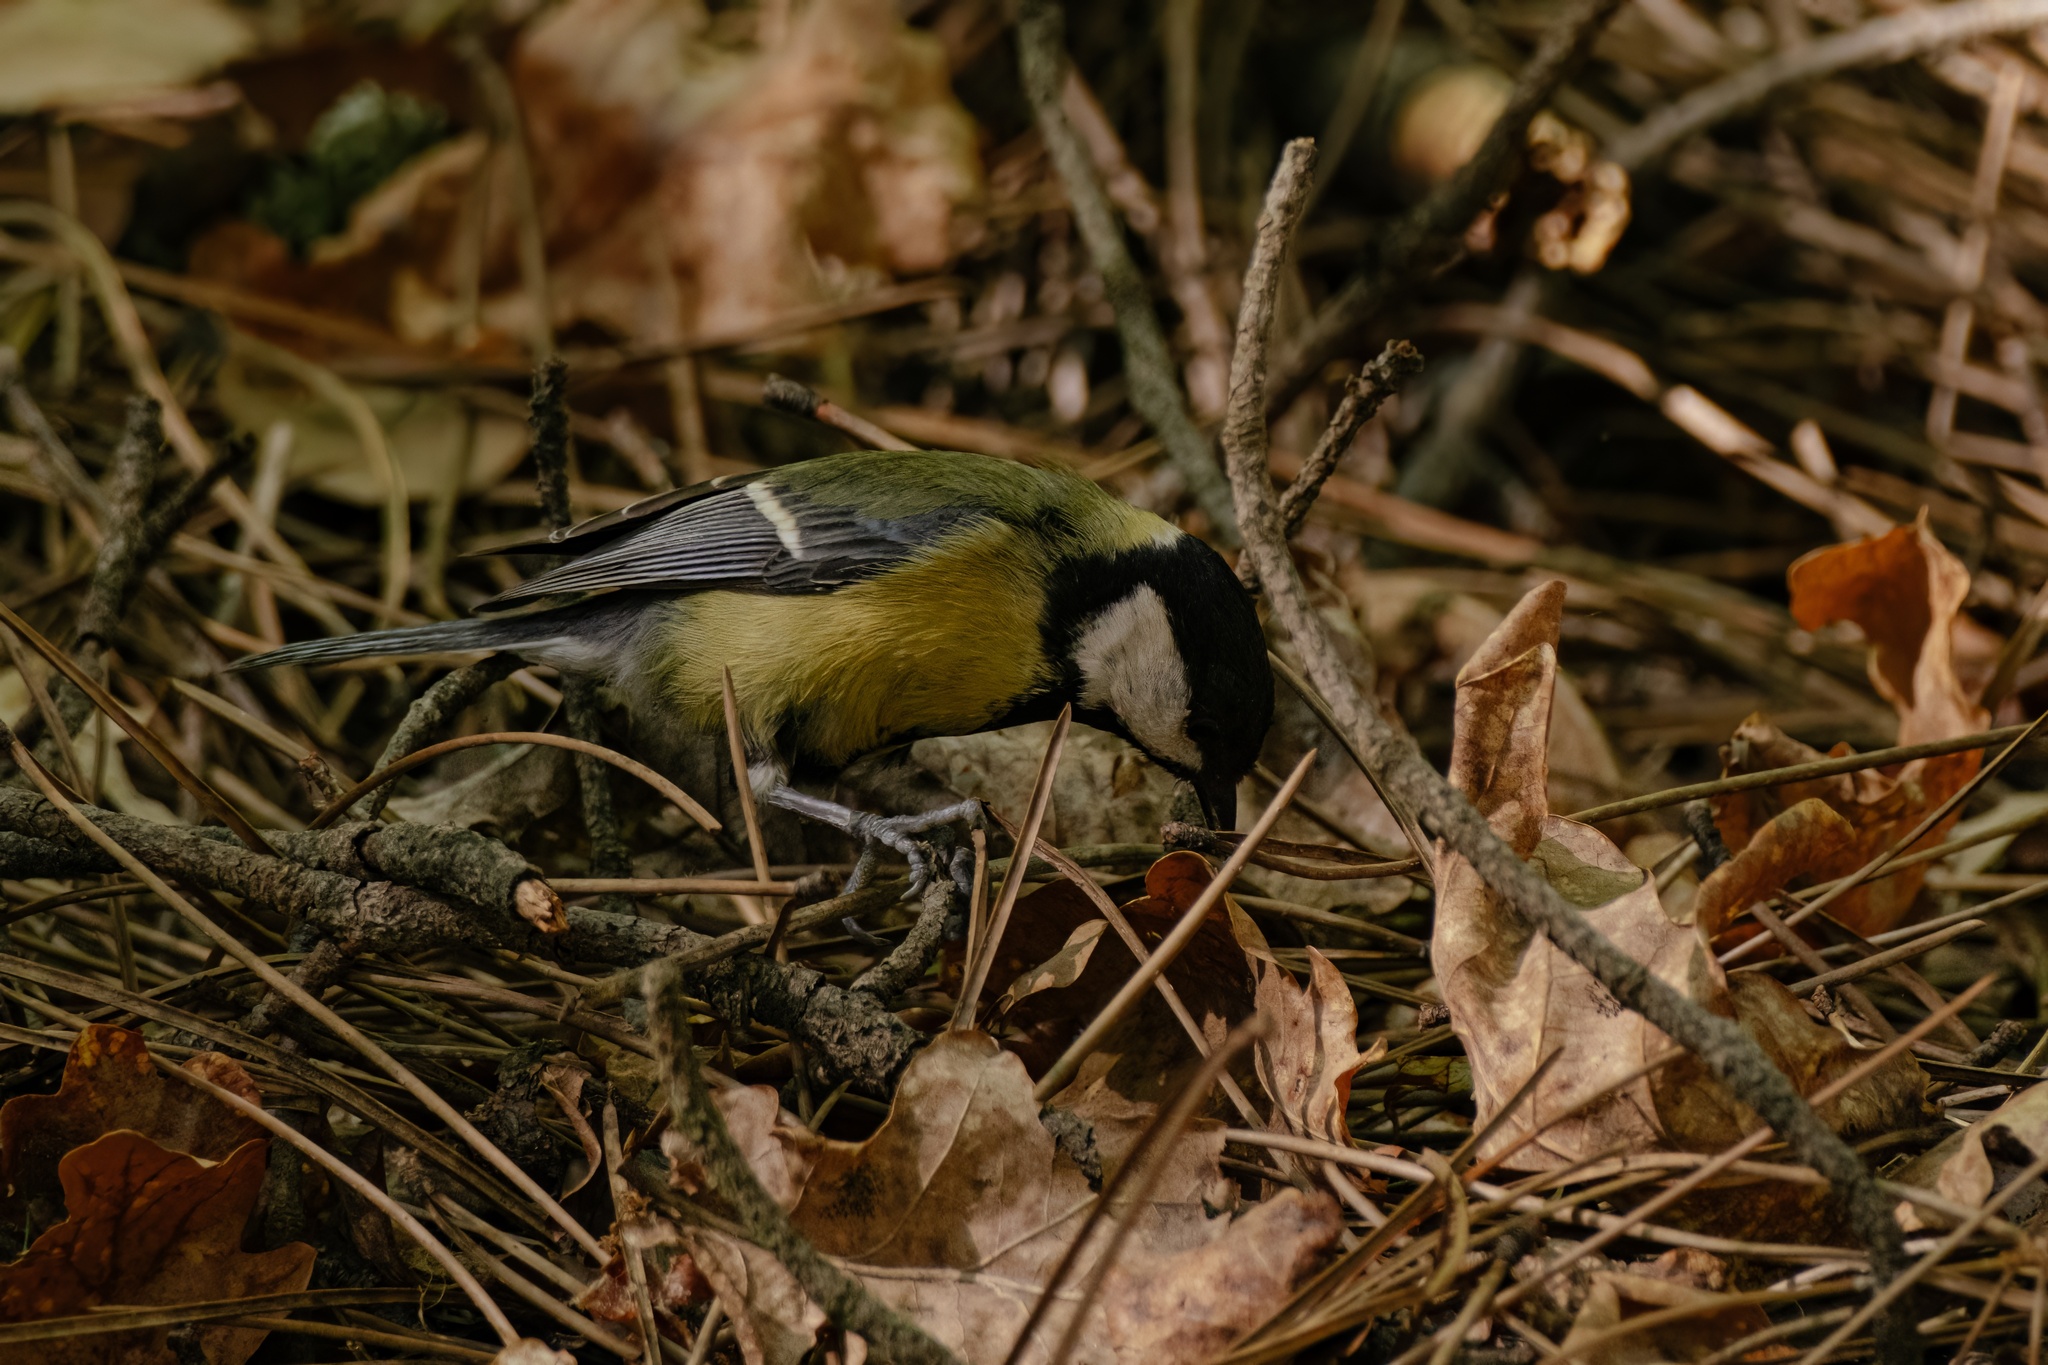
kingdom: Animalia
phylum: Chordata
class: Aves
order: Passeriformes
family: Paridae
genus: Parus
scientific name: Parus major
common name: Great tit
